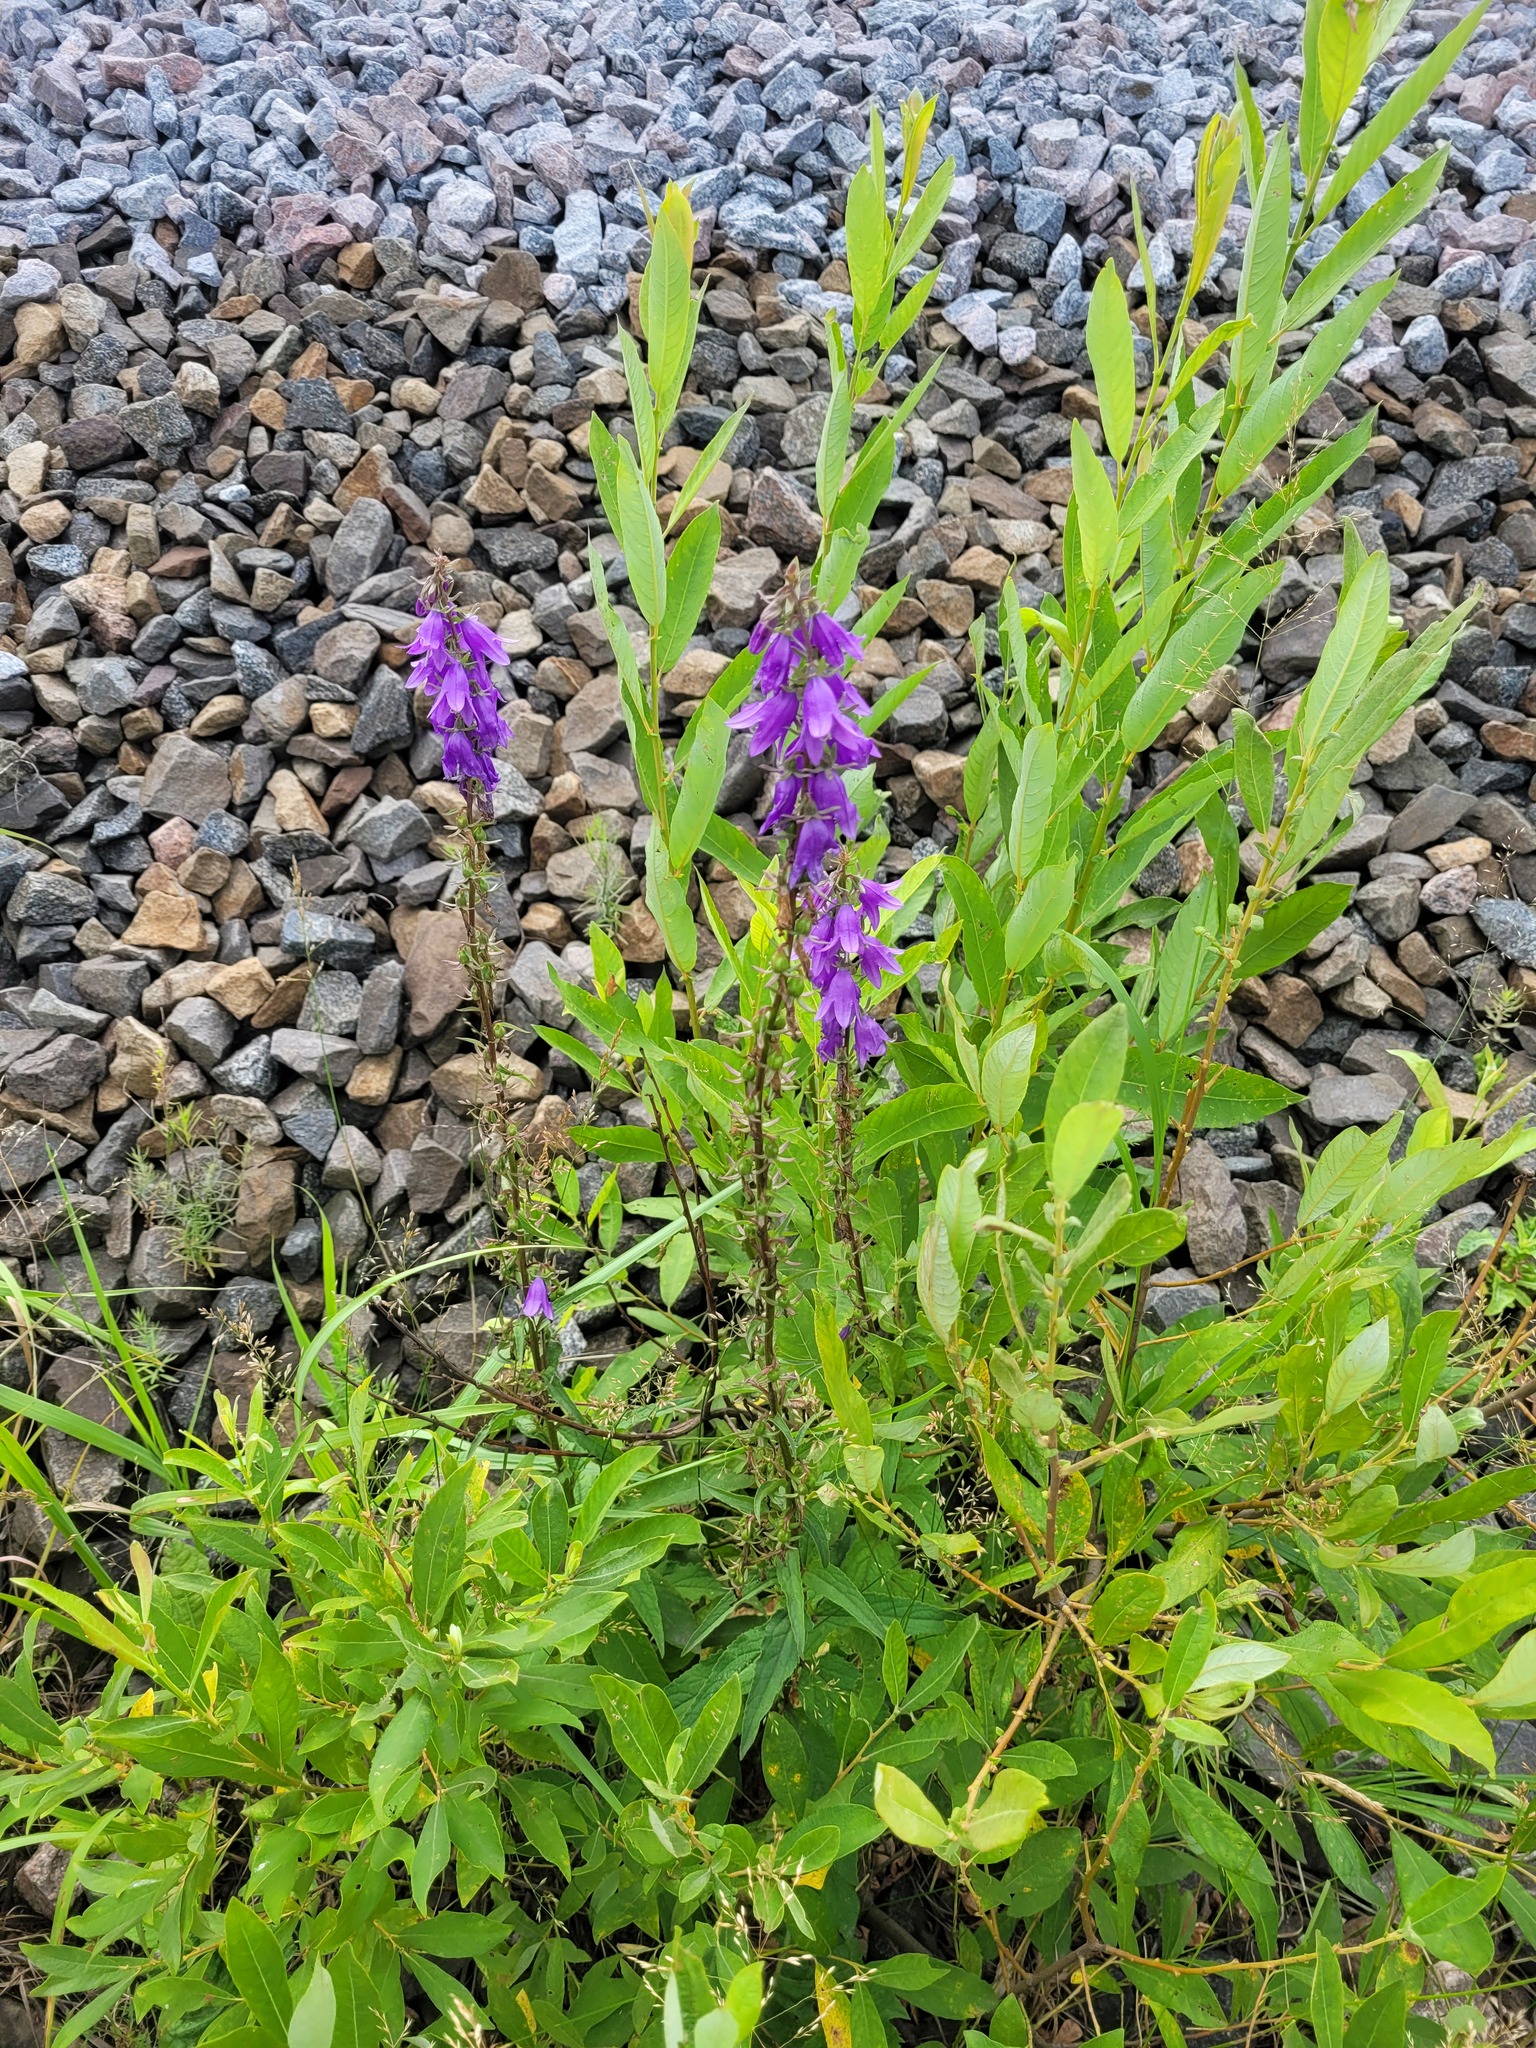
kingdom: Plantae
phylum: Tracheophyta
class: Magnoliopsida
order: Asterales
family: Campanulaceae
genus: Campanula
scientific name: Campanula rapunculoides
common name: Creeping bellflower
